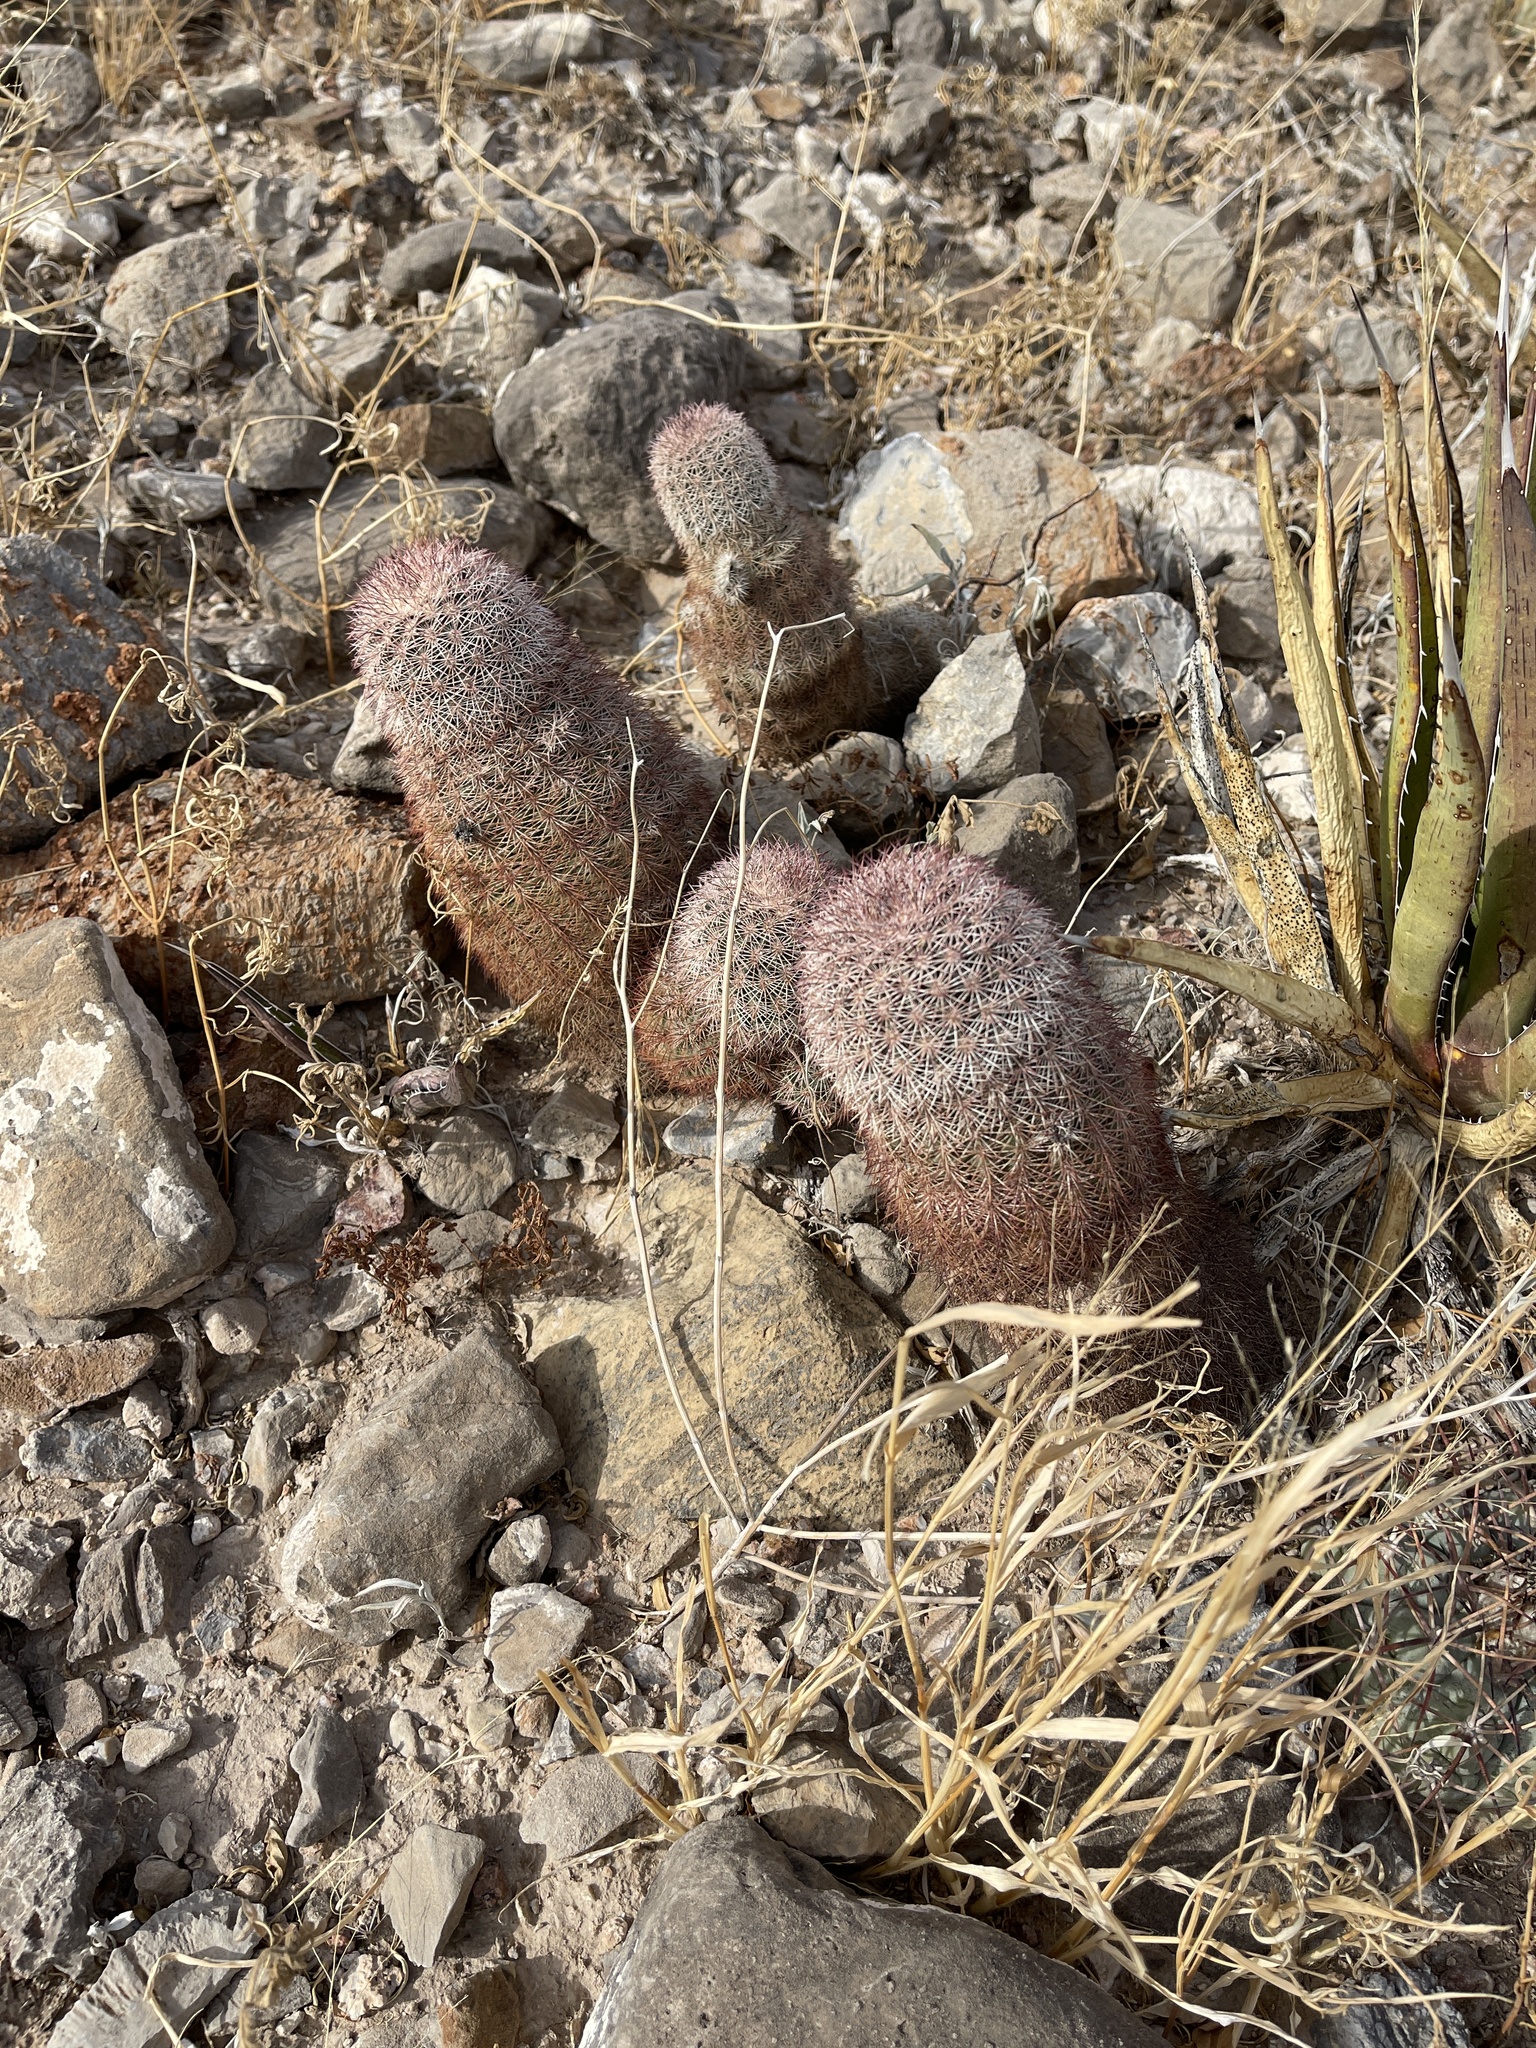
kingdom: Plantae
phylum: Tracheophyta
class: Magnoliopsida
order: Caryophyllales
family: Cactaceae
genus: Echinocereus
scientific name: Echinocereus dasyacanthus
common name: Spiny hedgehog cactus
